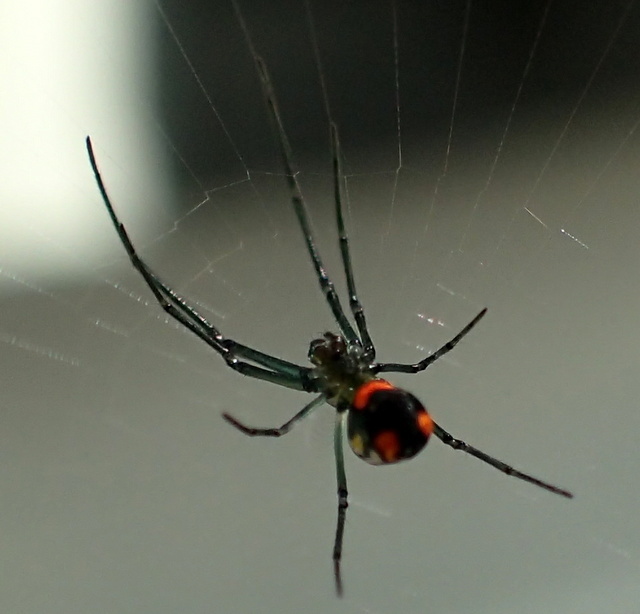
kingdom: Animalia
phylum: Arthropoda
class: Arachnida
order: Araneae
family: Tetragnathidae
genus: Leucauge
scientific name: Leucauge argyrobapta
